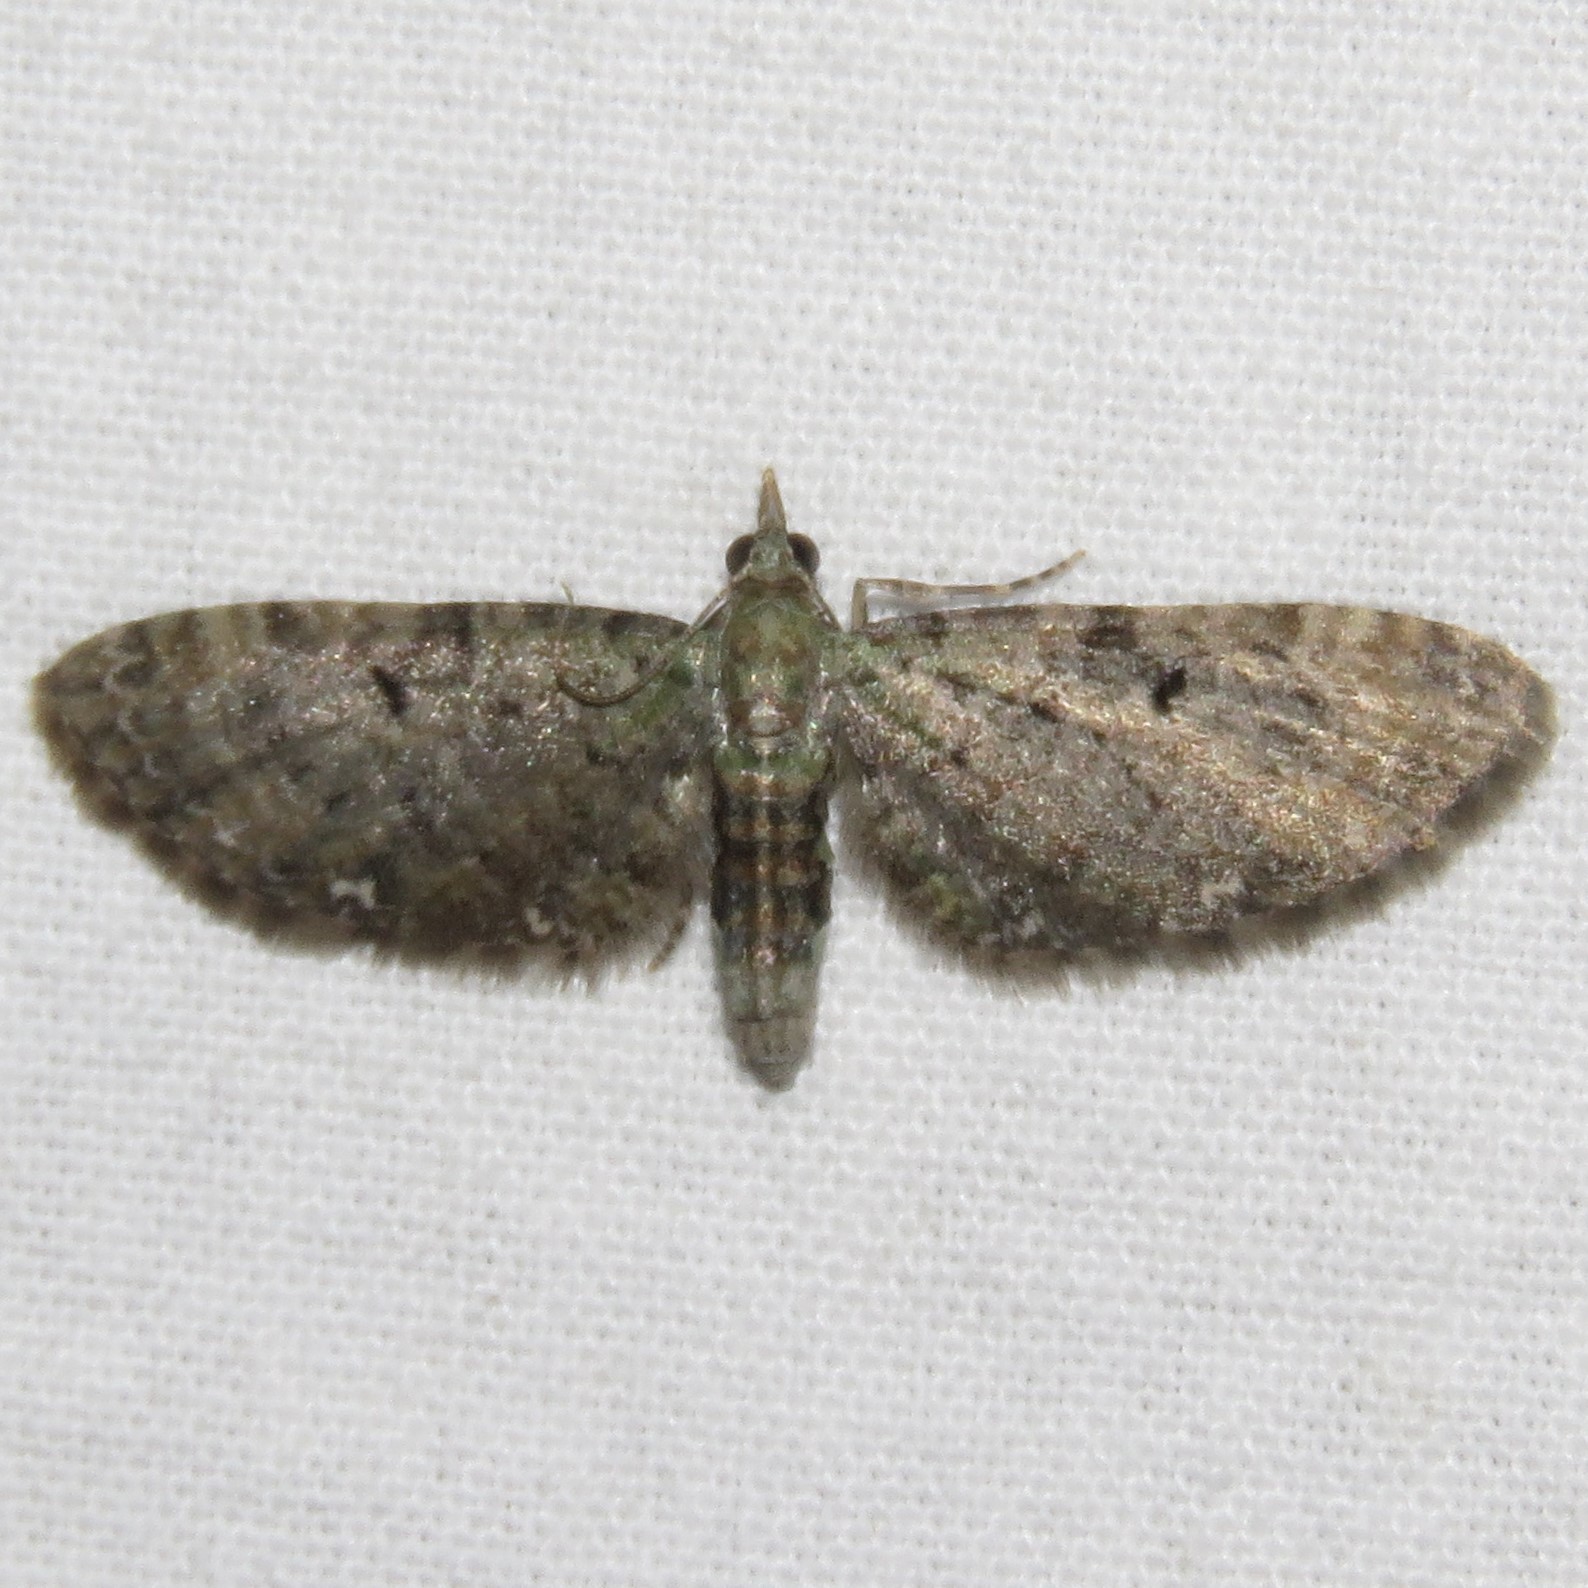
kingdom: Animalia
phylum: Arthropoda
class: Insecta
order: Lepidoptera
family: Geometridae
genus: Eupithecia
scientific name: Eupithecia miserulata
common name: Common eupithecia
